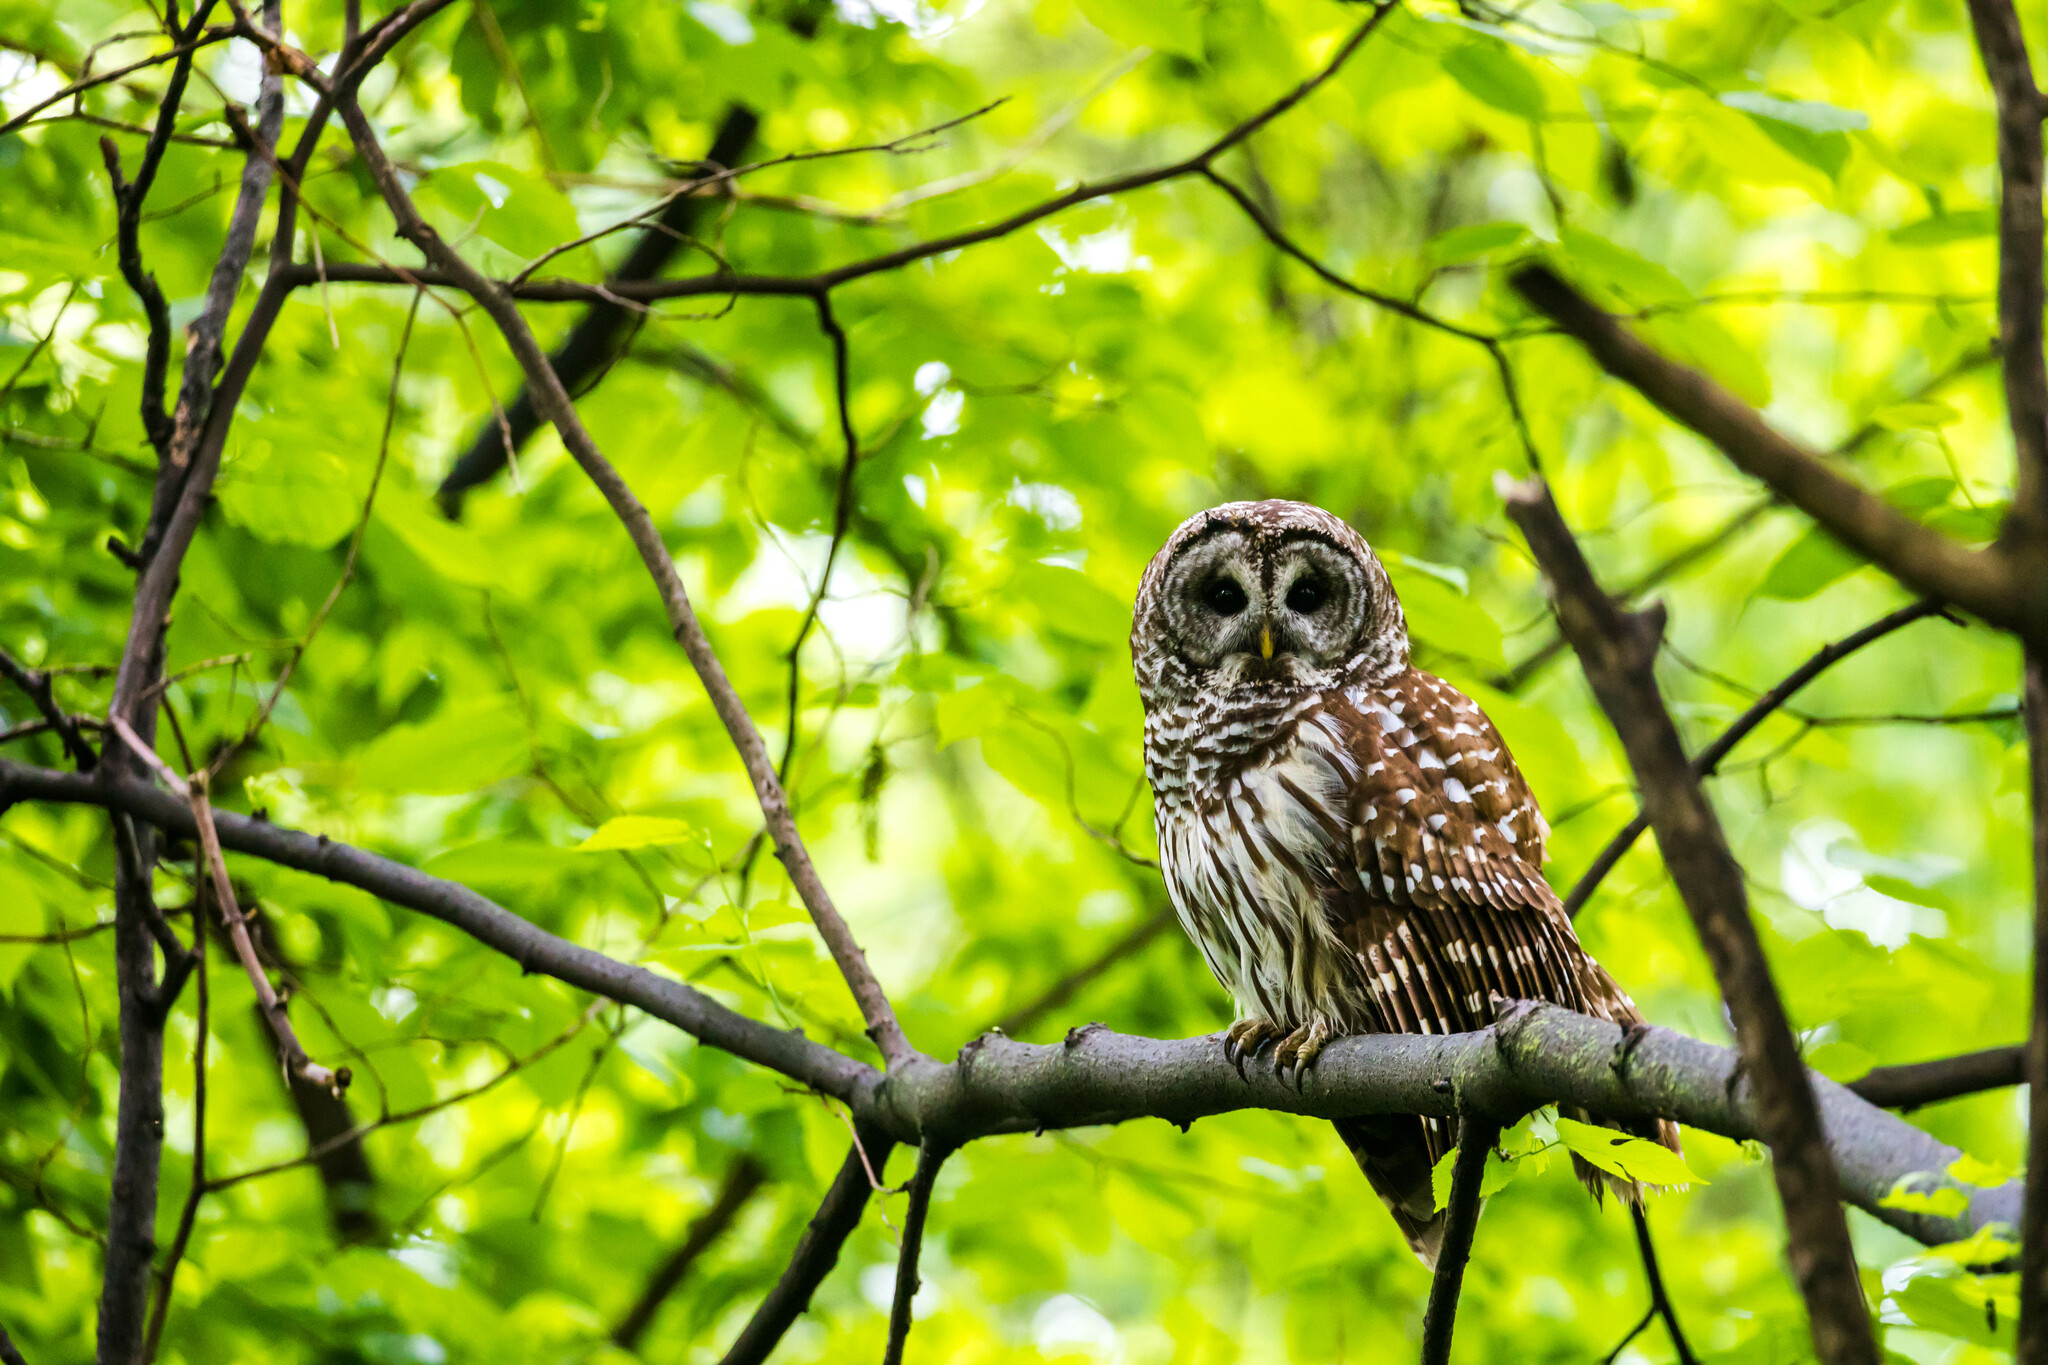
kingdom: Animalia
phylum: Chordata
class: Aves
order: Strigiformes
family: Strigidae
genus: Strix
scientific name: Strix varia
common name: Barred owl
